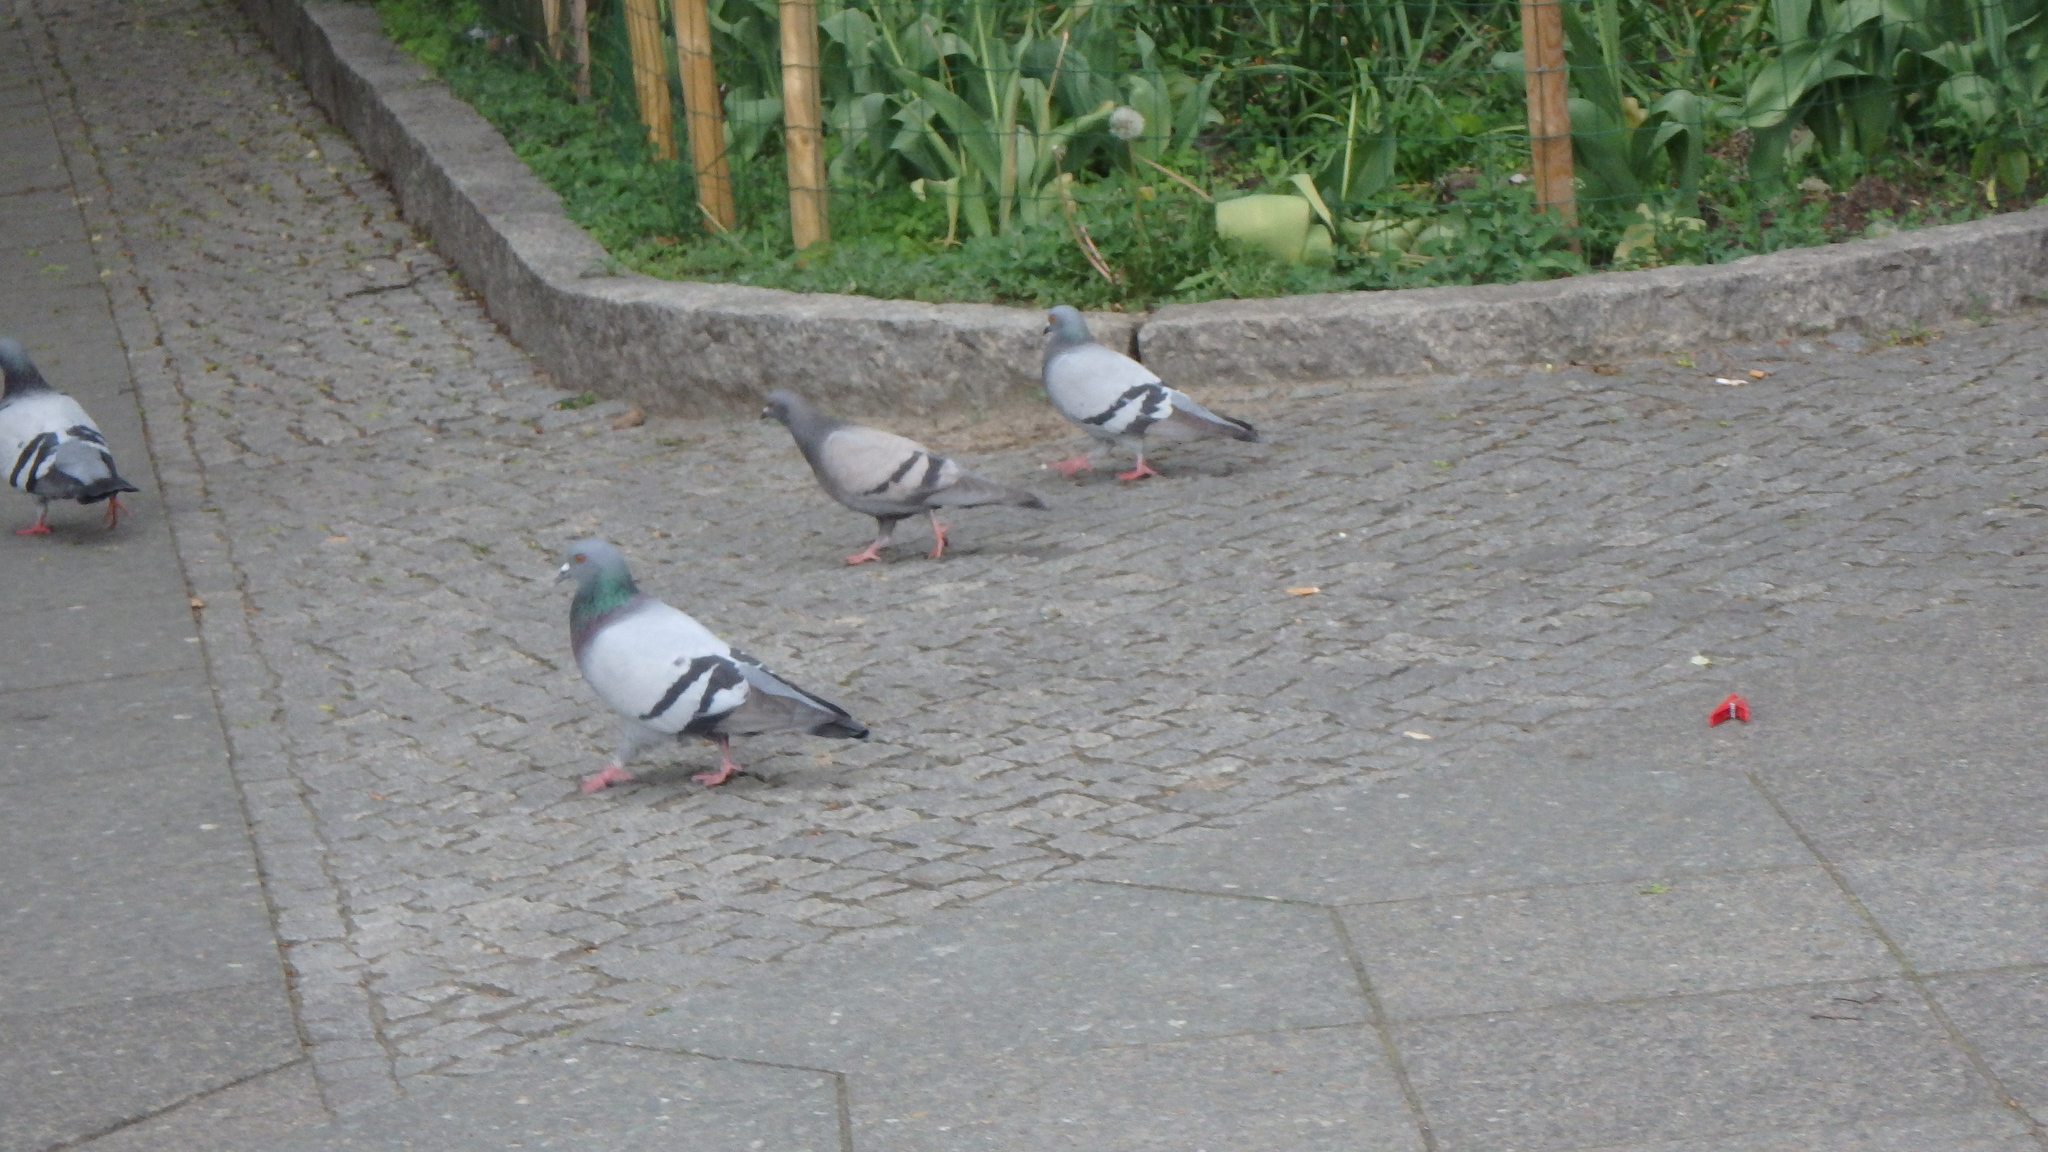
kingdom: Animalia
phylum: Chordata
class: Aves
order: Columbiformes
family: Columbidae
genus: Columba
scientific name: Columba livia
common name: Rock pigeon
